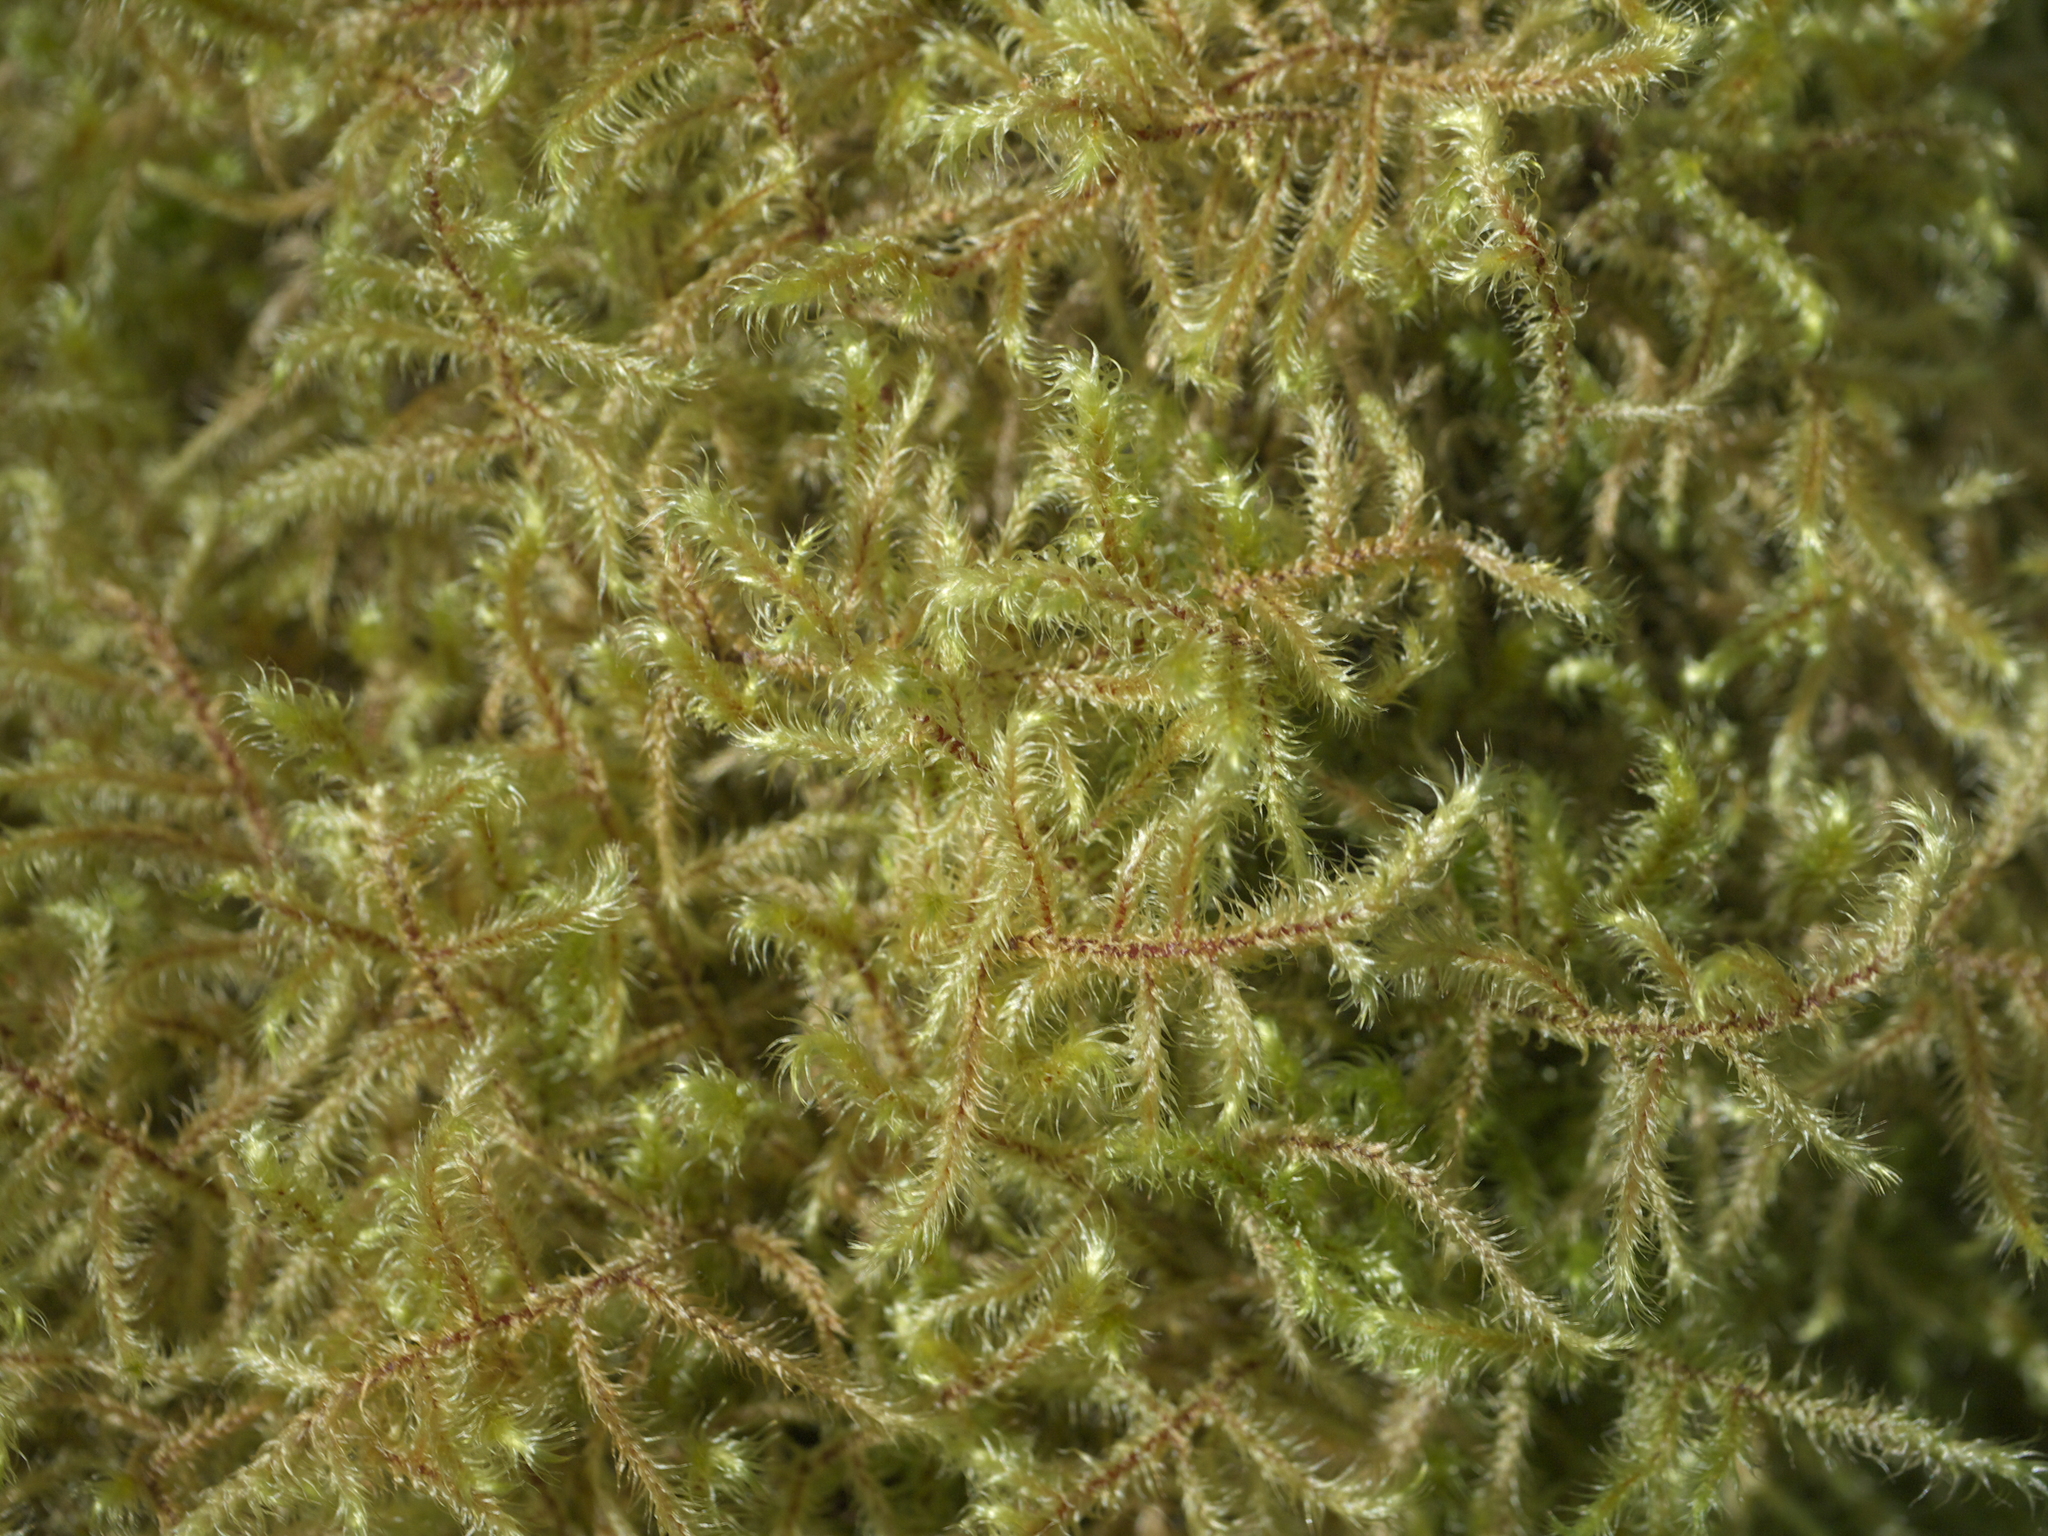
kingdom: Plantae
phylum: Bryophyta
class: Bryopsida
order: Hypnales
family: Hylocomiaceae
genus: Rhytidiadelphus
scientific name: Rhytidiadelphus loreus
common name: Lanky moss
